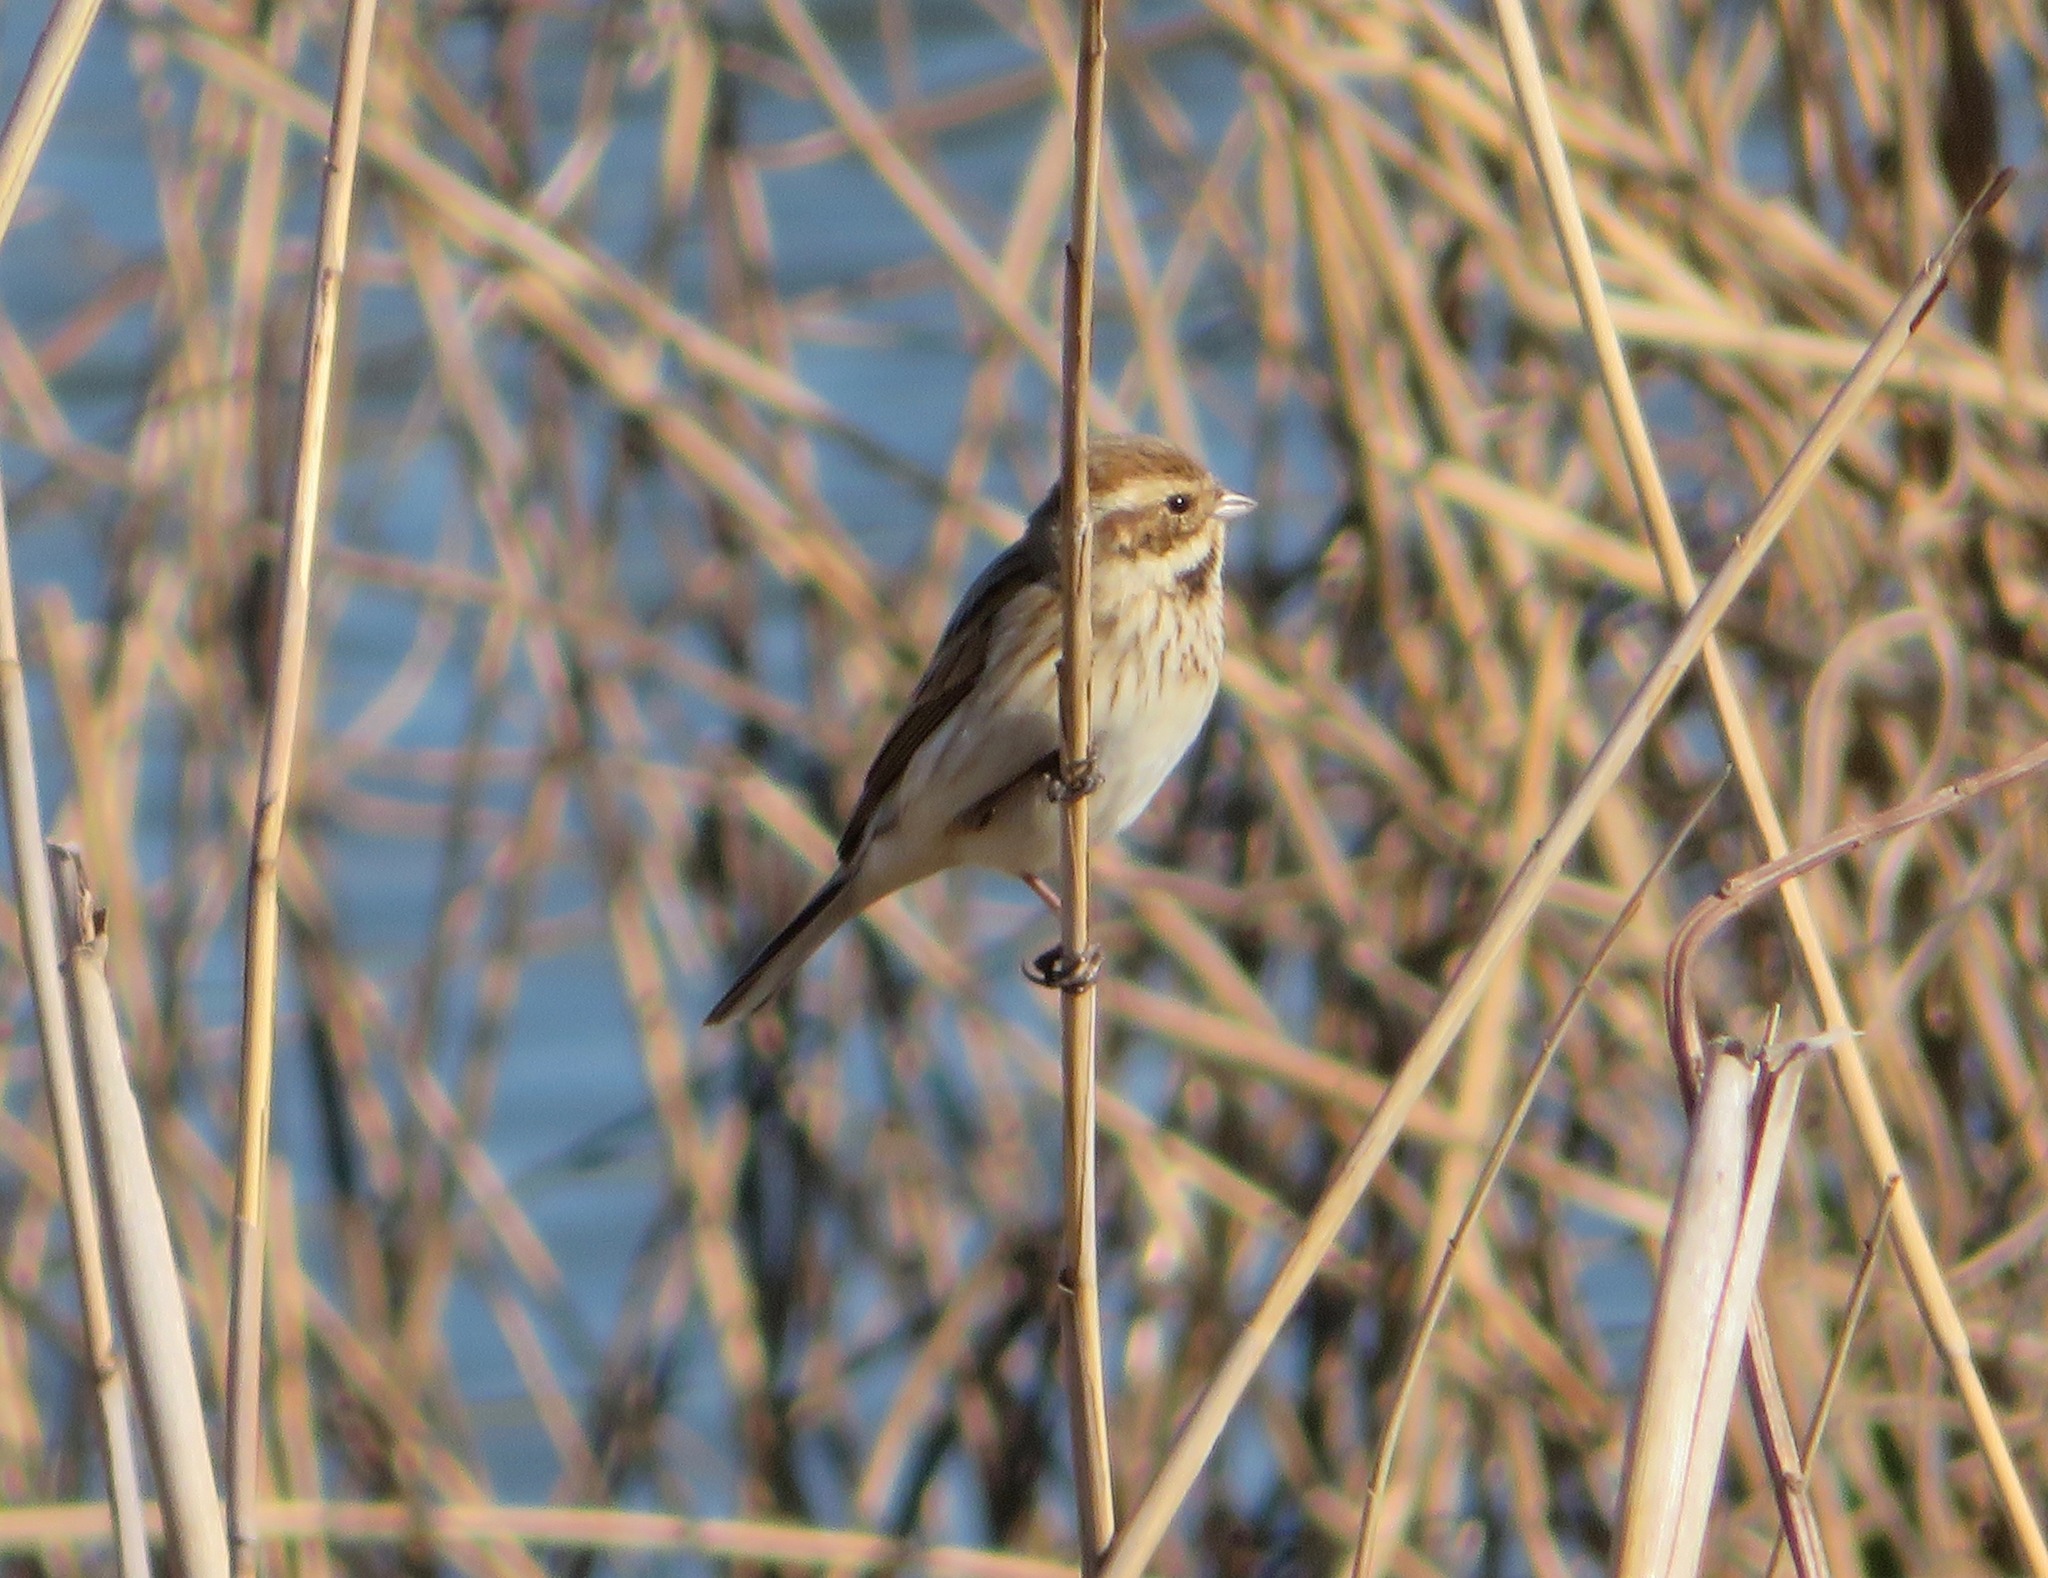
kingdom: Animalia
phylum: Chordata
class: Aves
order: Passeriformes
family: Emberizidae
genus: Emberiza
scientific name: Emberiza schoeniclus
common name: Reed bunting
